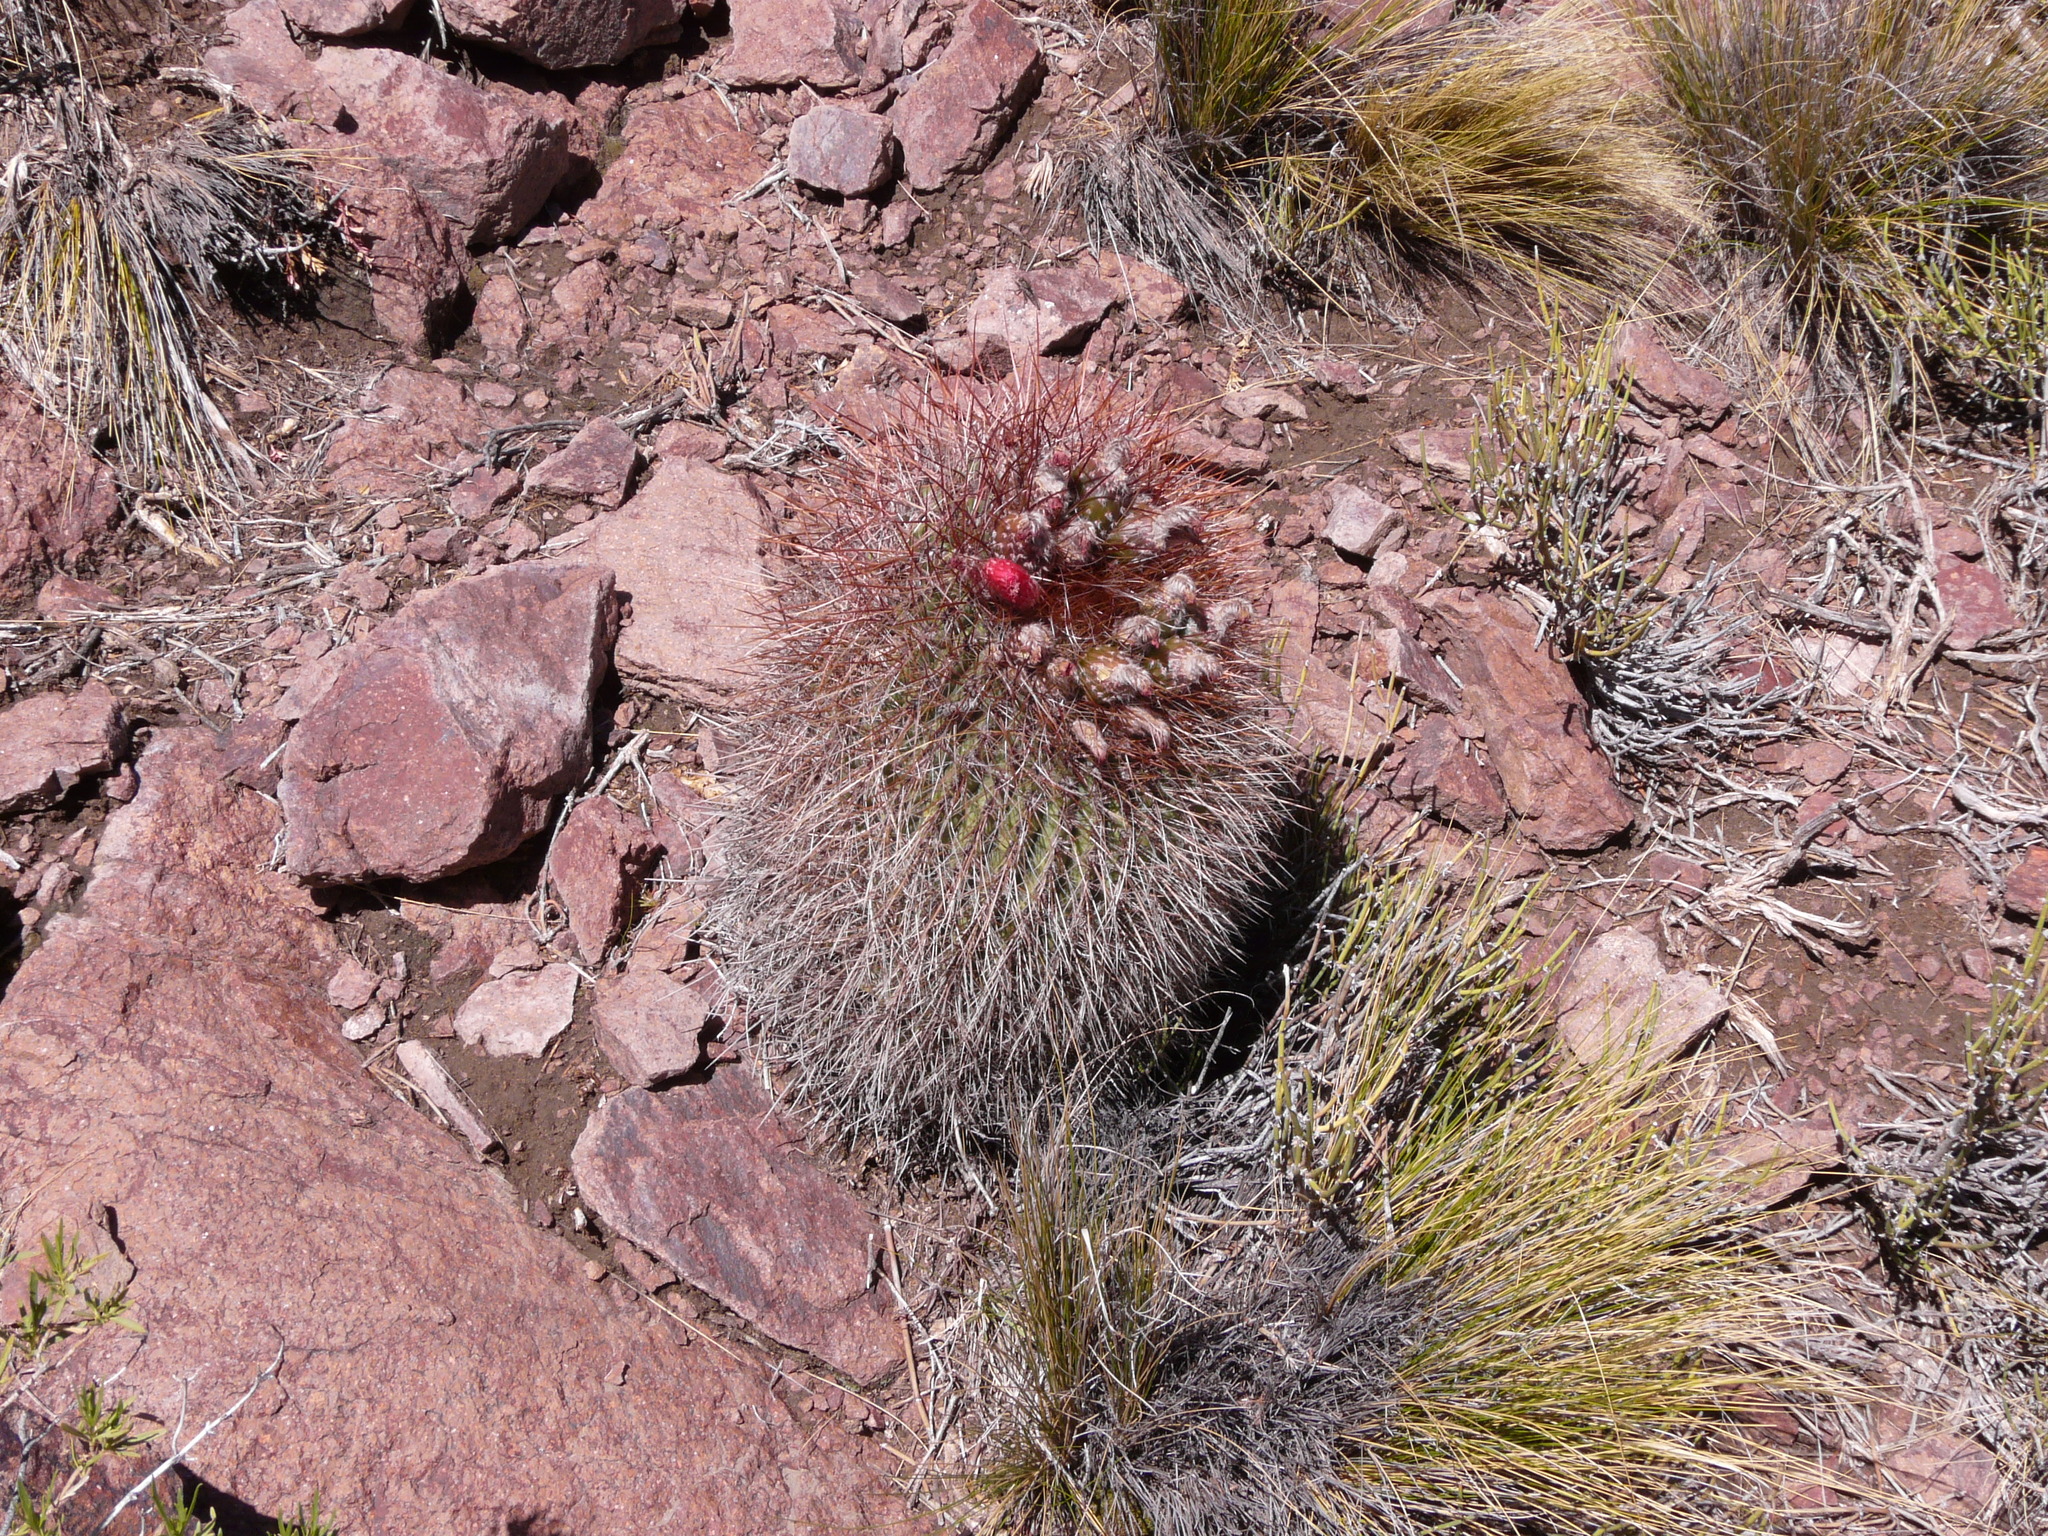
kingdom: Plantae
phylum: Tracheophyta
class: Magnoliopsida
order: Caryophyllales
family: Cactaceae
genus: Denmoza
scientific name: Denmoza rhodacantha
